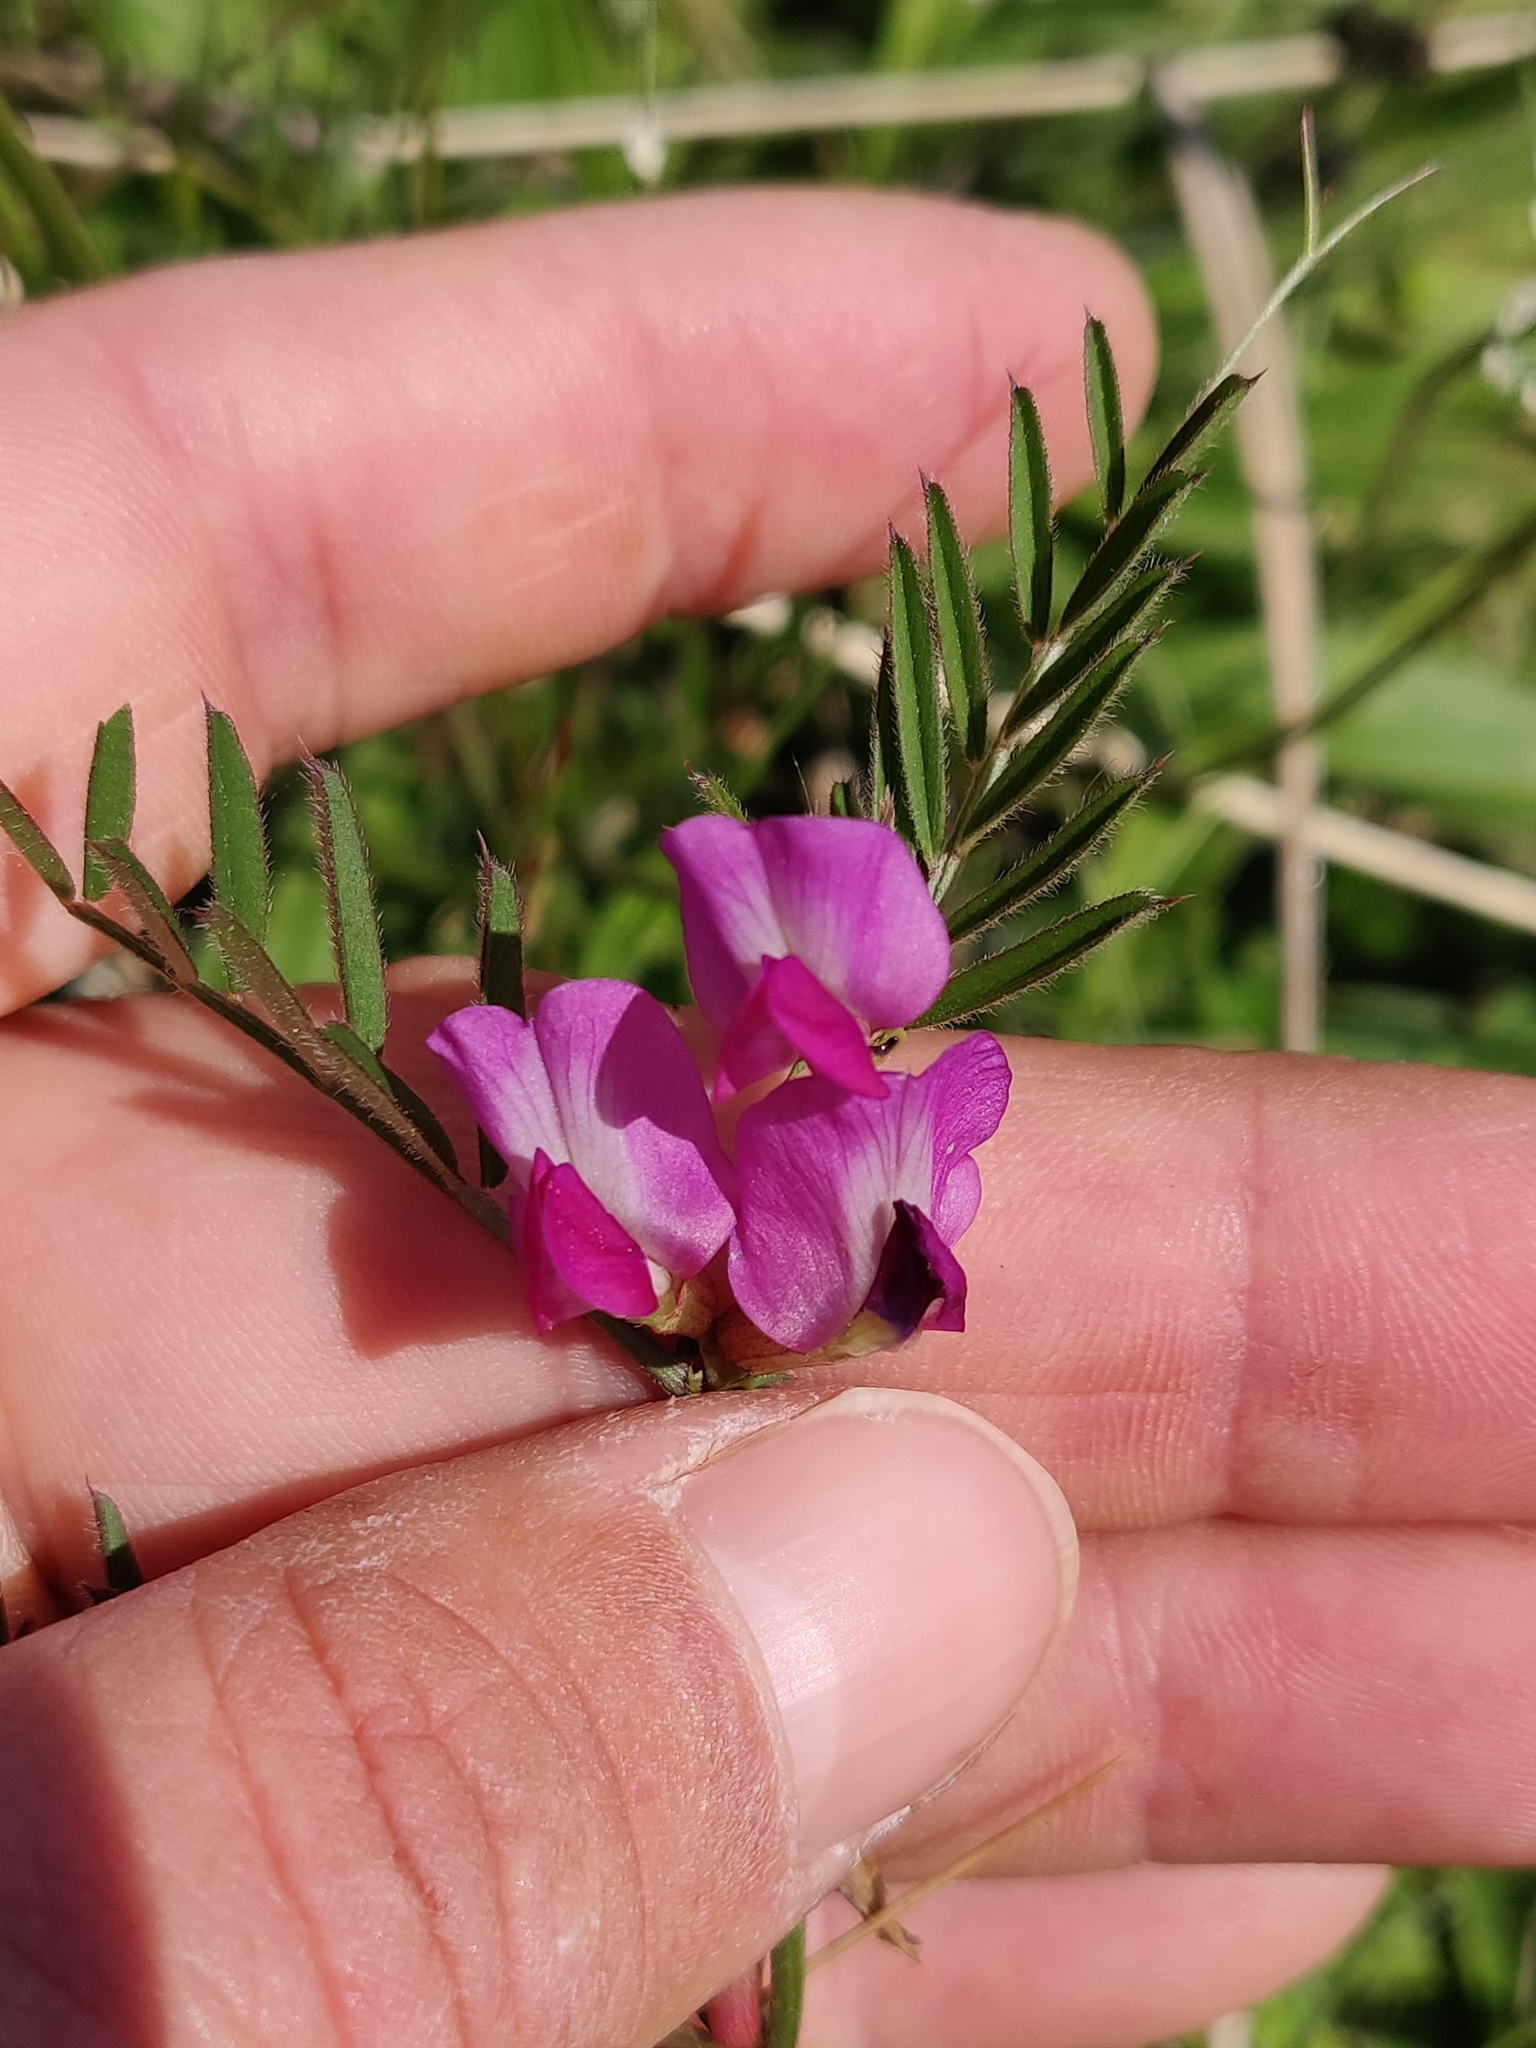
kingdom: Plantae
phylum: Tracheophyta
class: Magnoliopsida
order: Fabales
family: Fabaceae
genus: Vicia
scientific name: Vicia sativa
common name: Garden vetch
